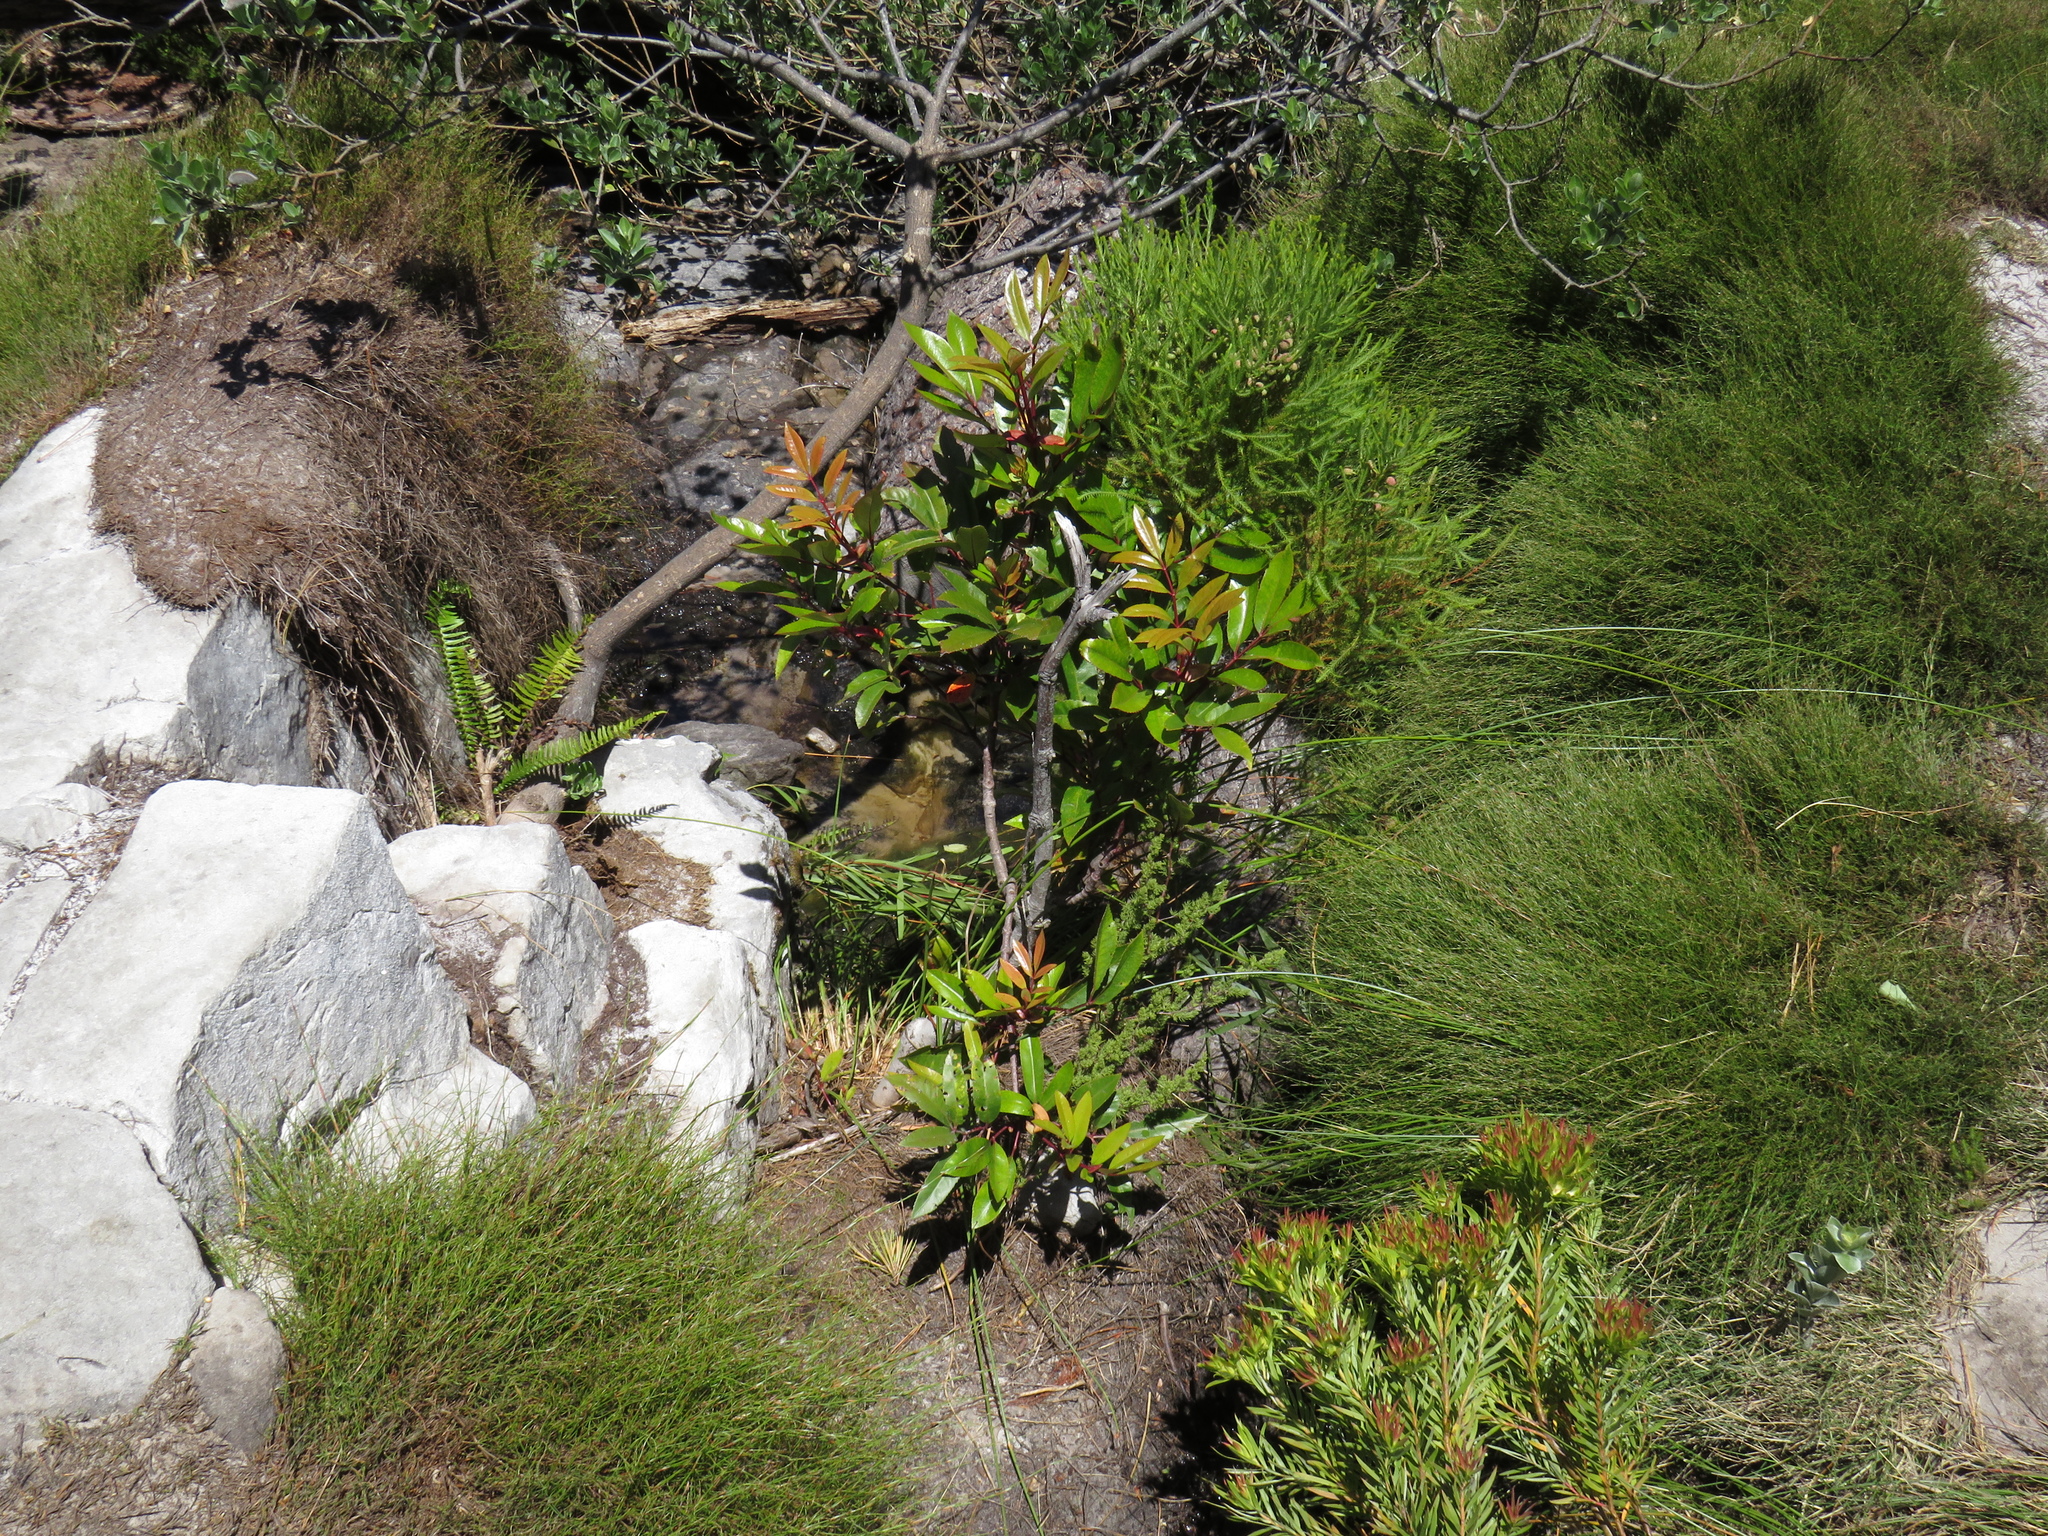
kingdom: Plantae
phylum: Tracheophyta
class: Magnoliopsida
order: Oxalidales
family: Cunoniaceae
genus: Cunonia
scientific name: Cunonia capensis
